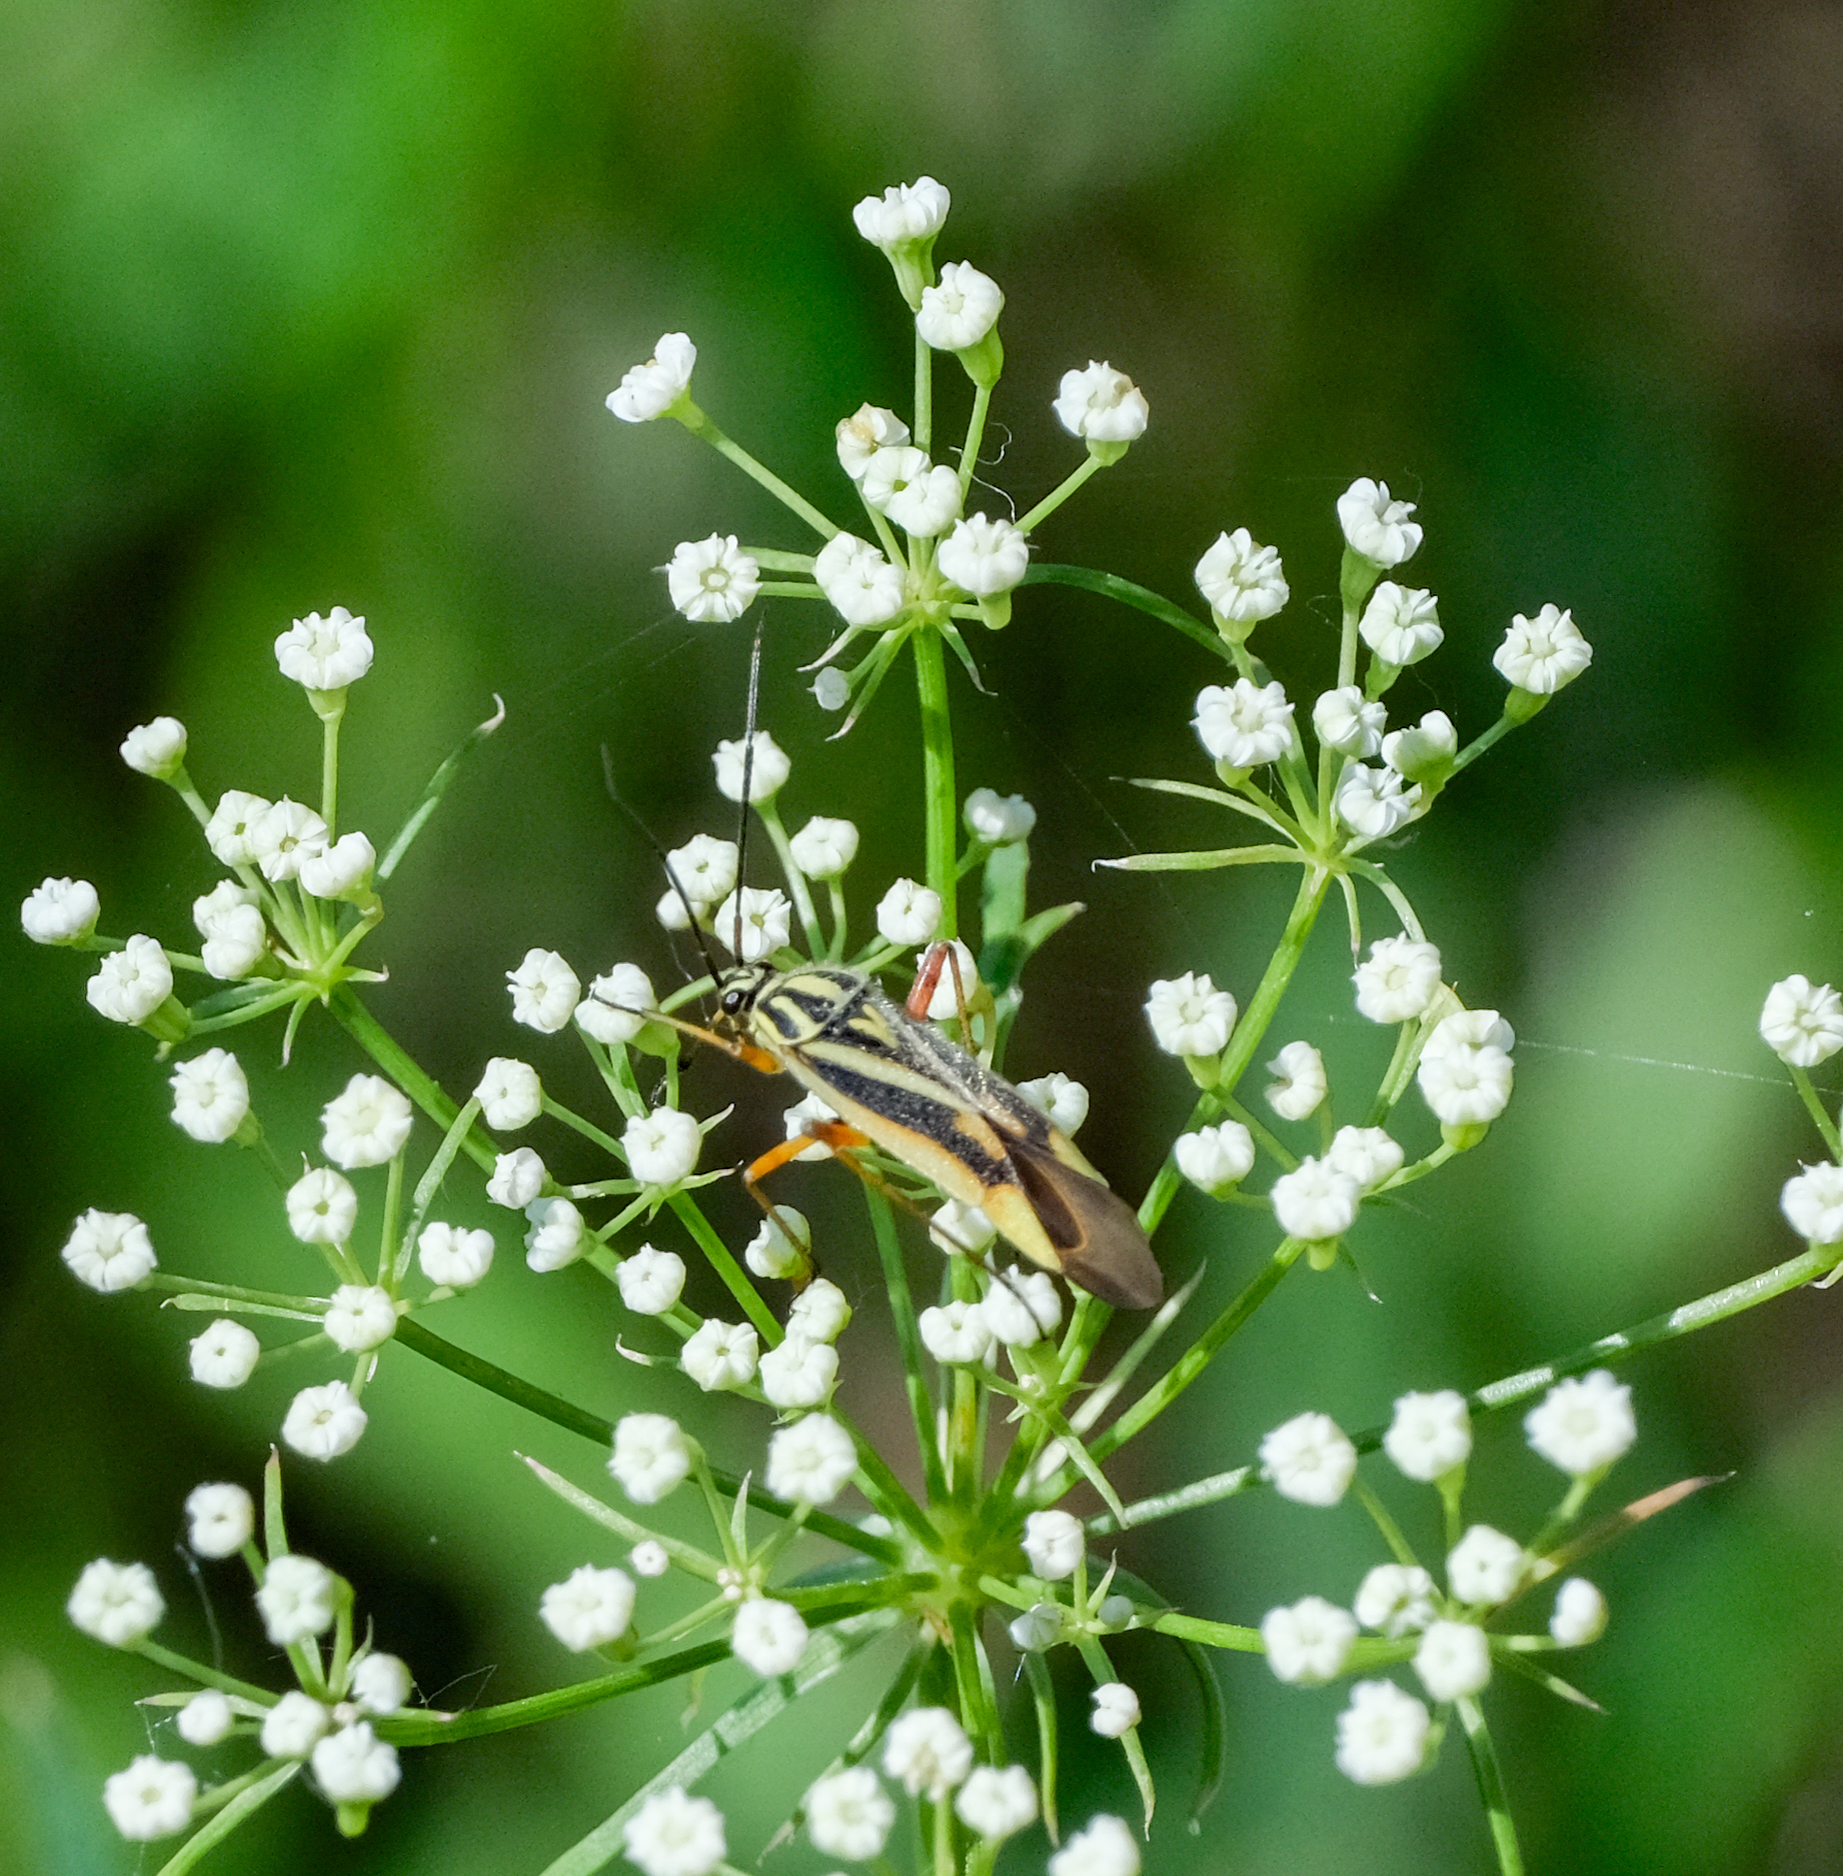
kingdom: Animalia
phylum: Arthropoda
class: Insecta
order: Hemiptera
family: Miridae
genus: Brachycoleus
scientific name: Brachycoleus decolor
